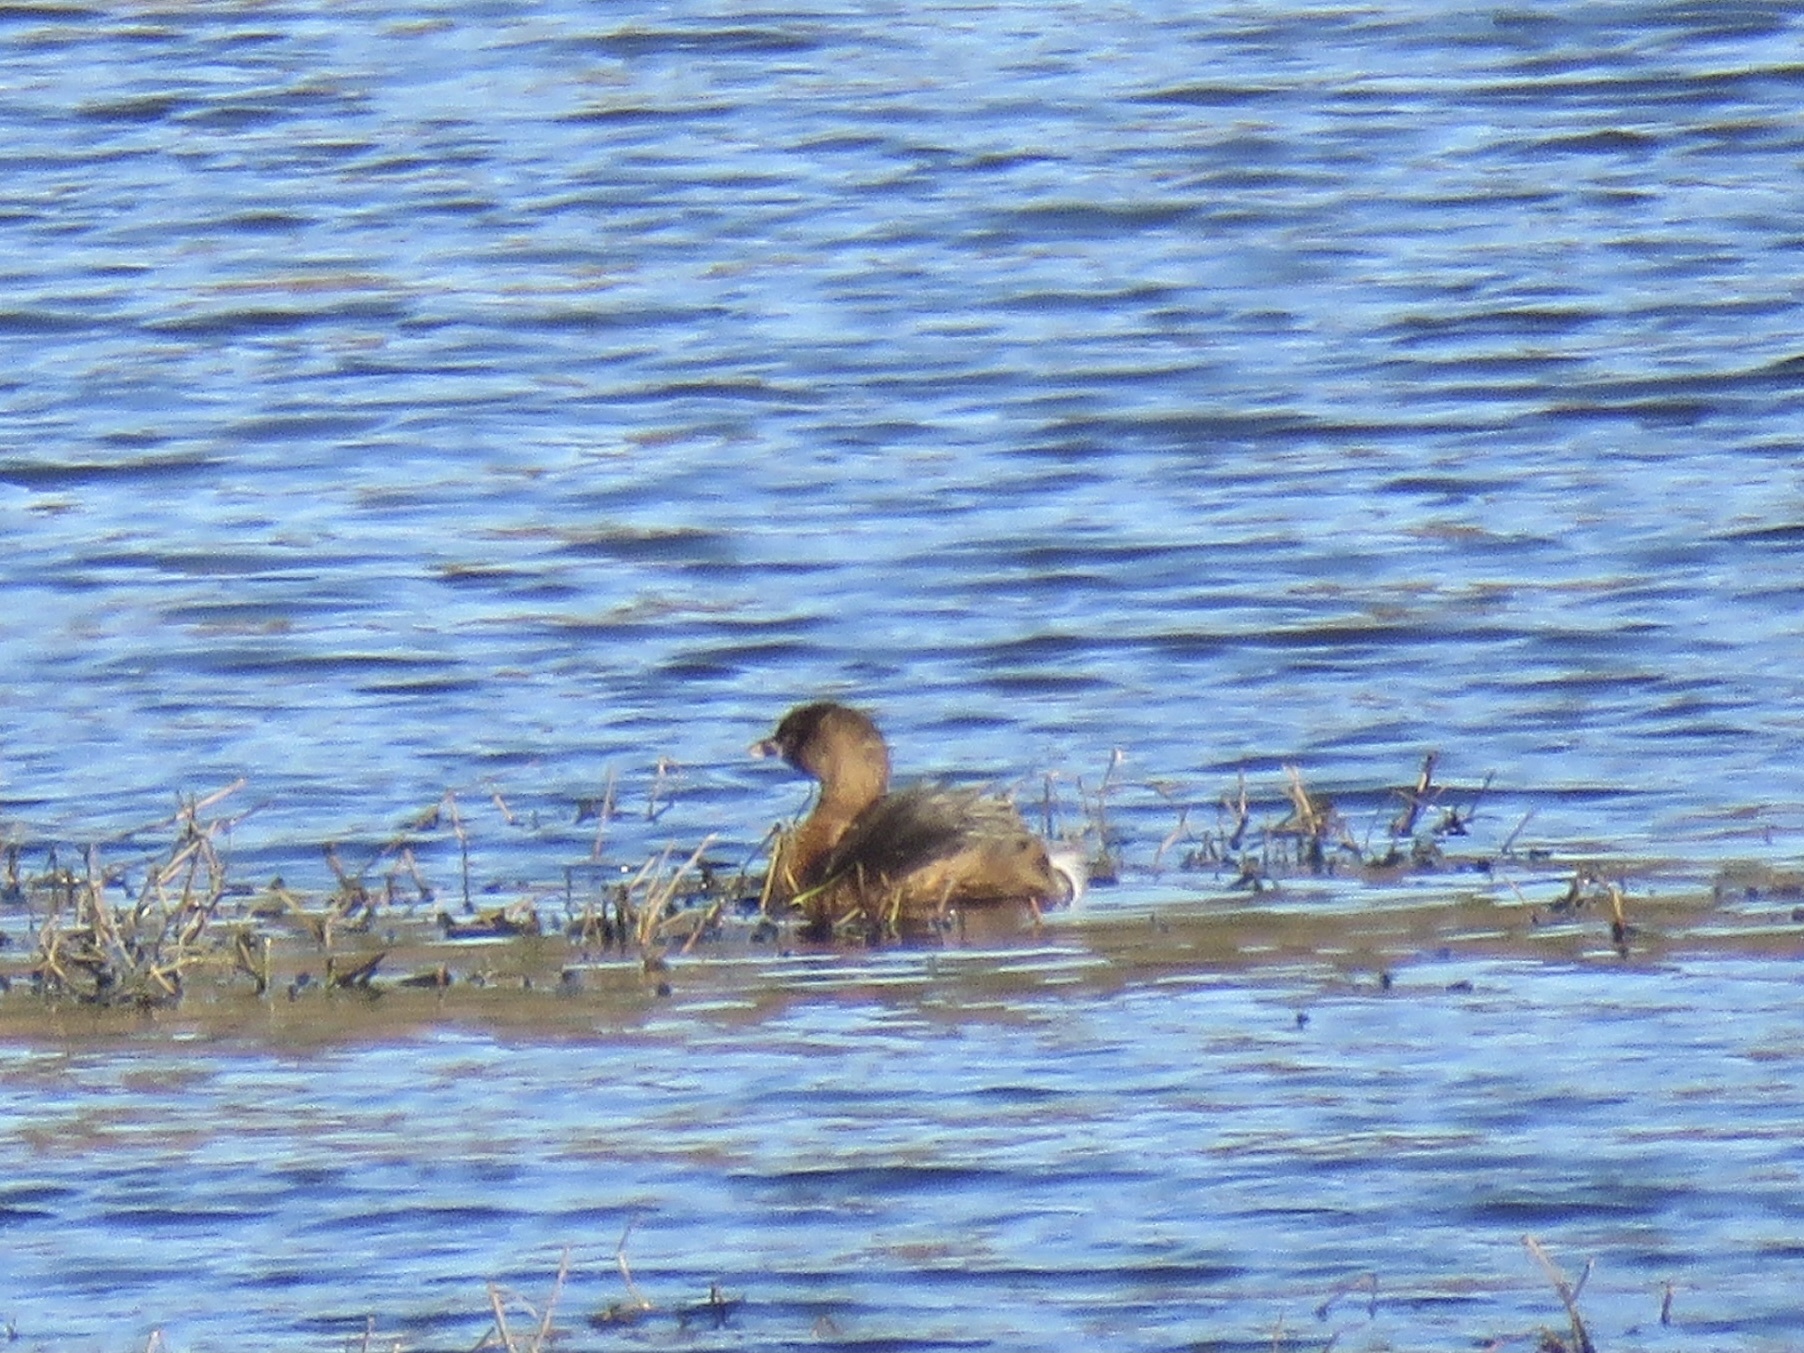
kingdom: Animalia
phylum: Chordata
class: Aves
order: Podicipediformes
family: Podicipedidae
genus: Podilymbus
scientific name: Podilymbus podiceps
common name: Pied-billed grebe
